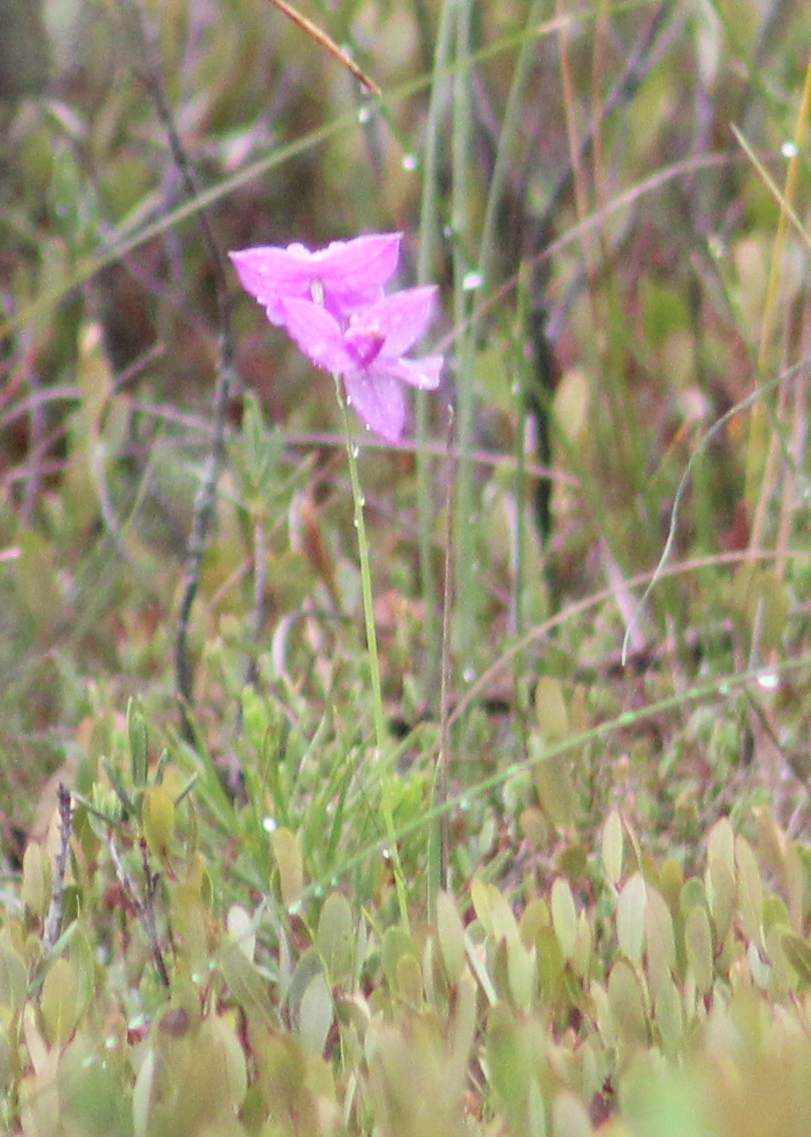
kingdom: Plantae
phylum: Tracheophyta
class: Liliopsida
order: Asparagales
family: Orchidaceae
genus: Calopogon
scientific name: Calopogon tuberosus
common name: Grass-pink
